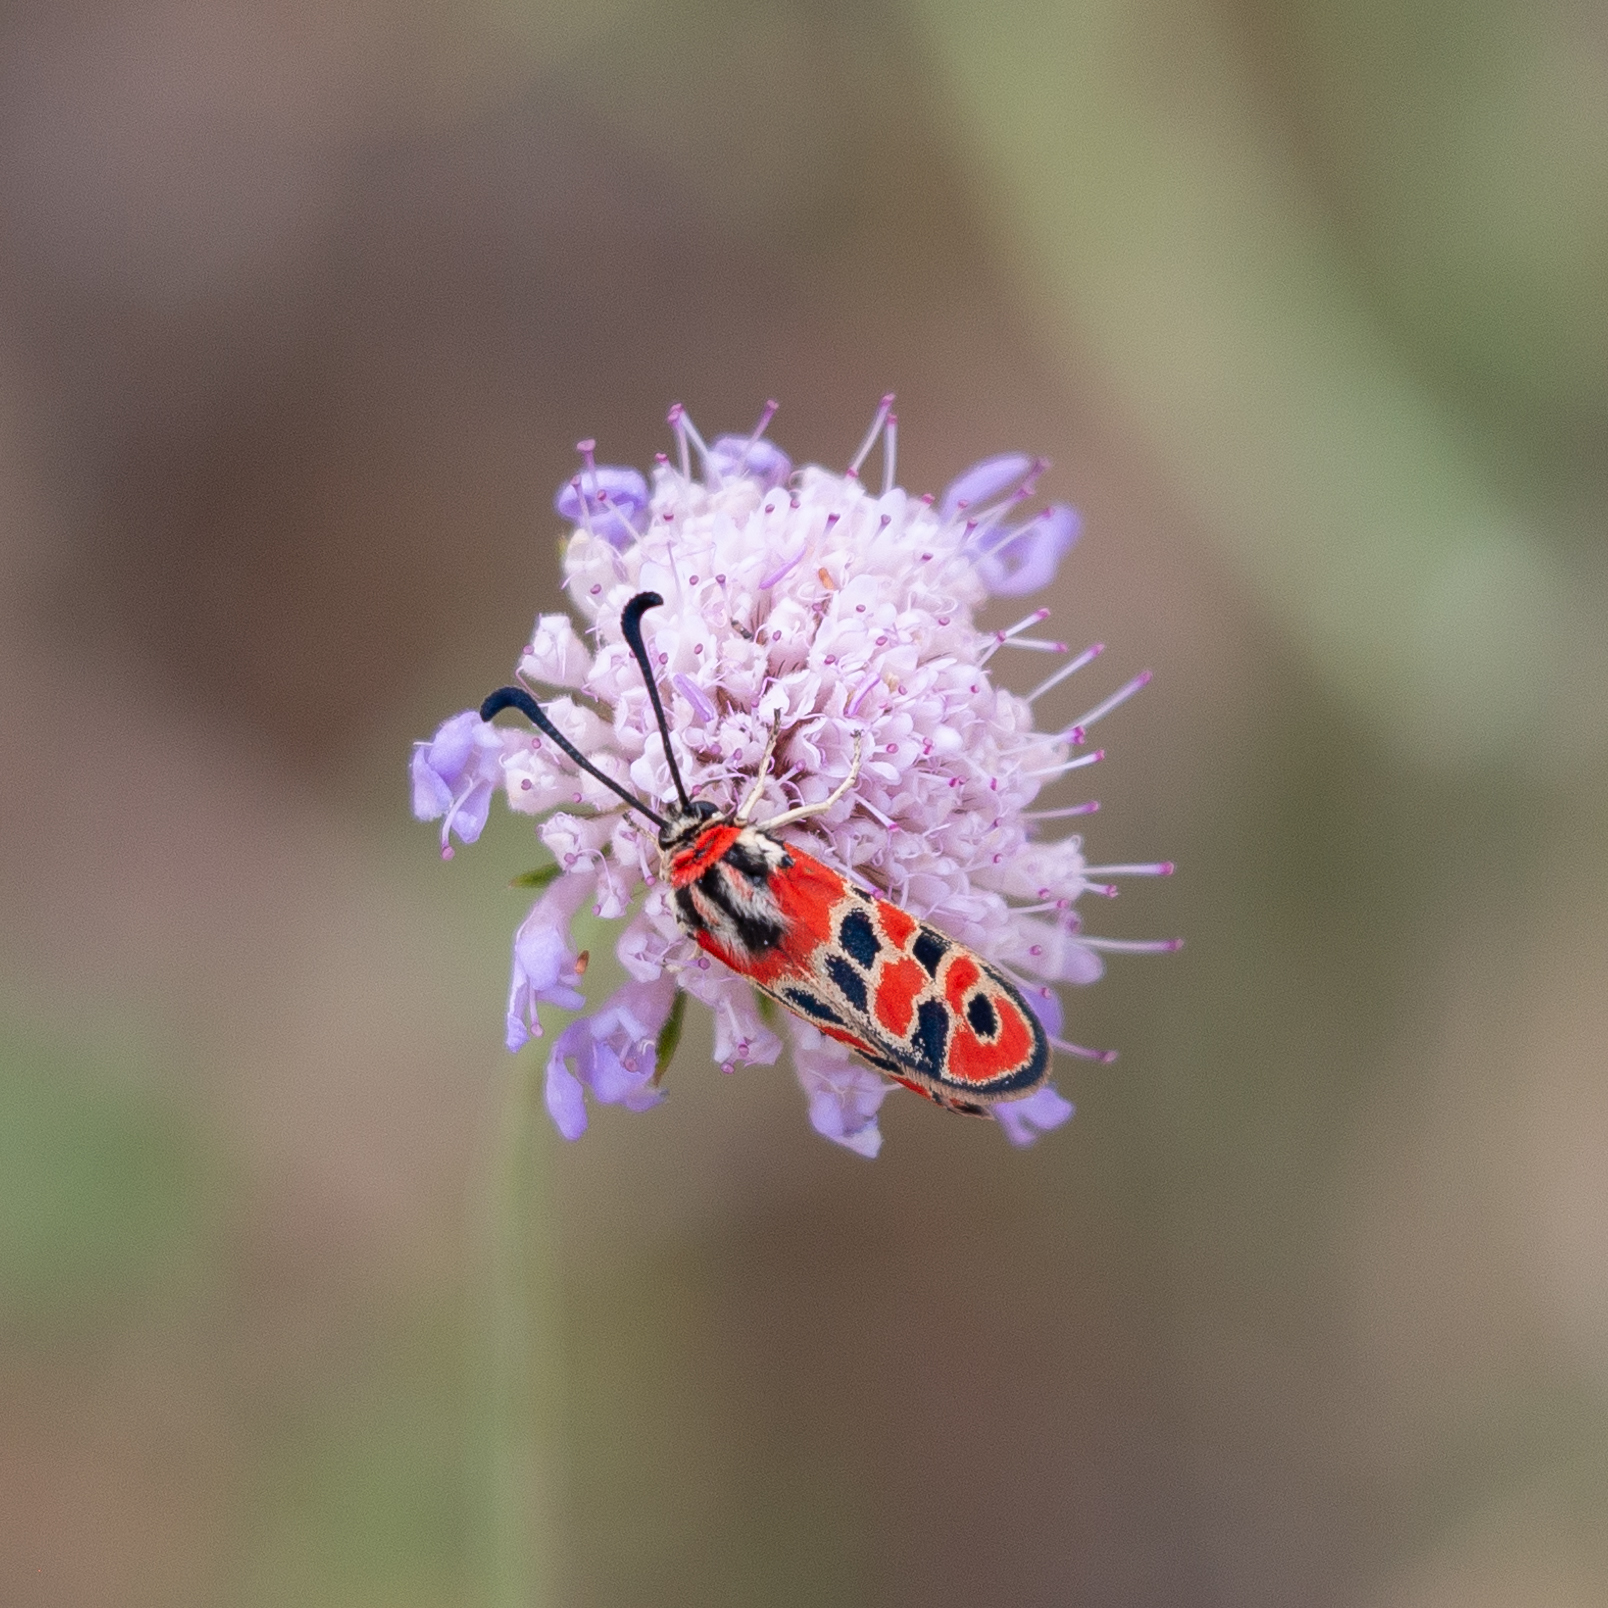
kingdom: Animalia
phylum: Arthropoda
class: Insecta
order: Lepidoptera
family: Zygaenidae
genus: Zygaena
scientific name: Zygaena fausta
